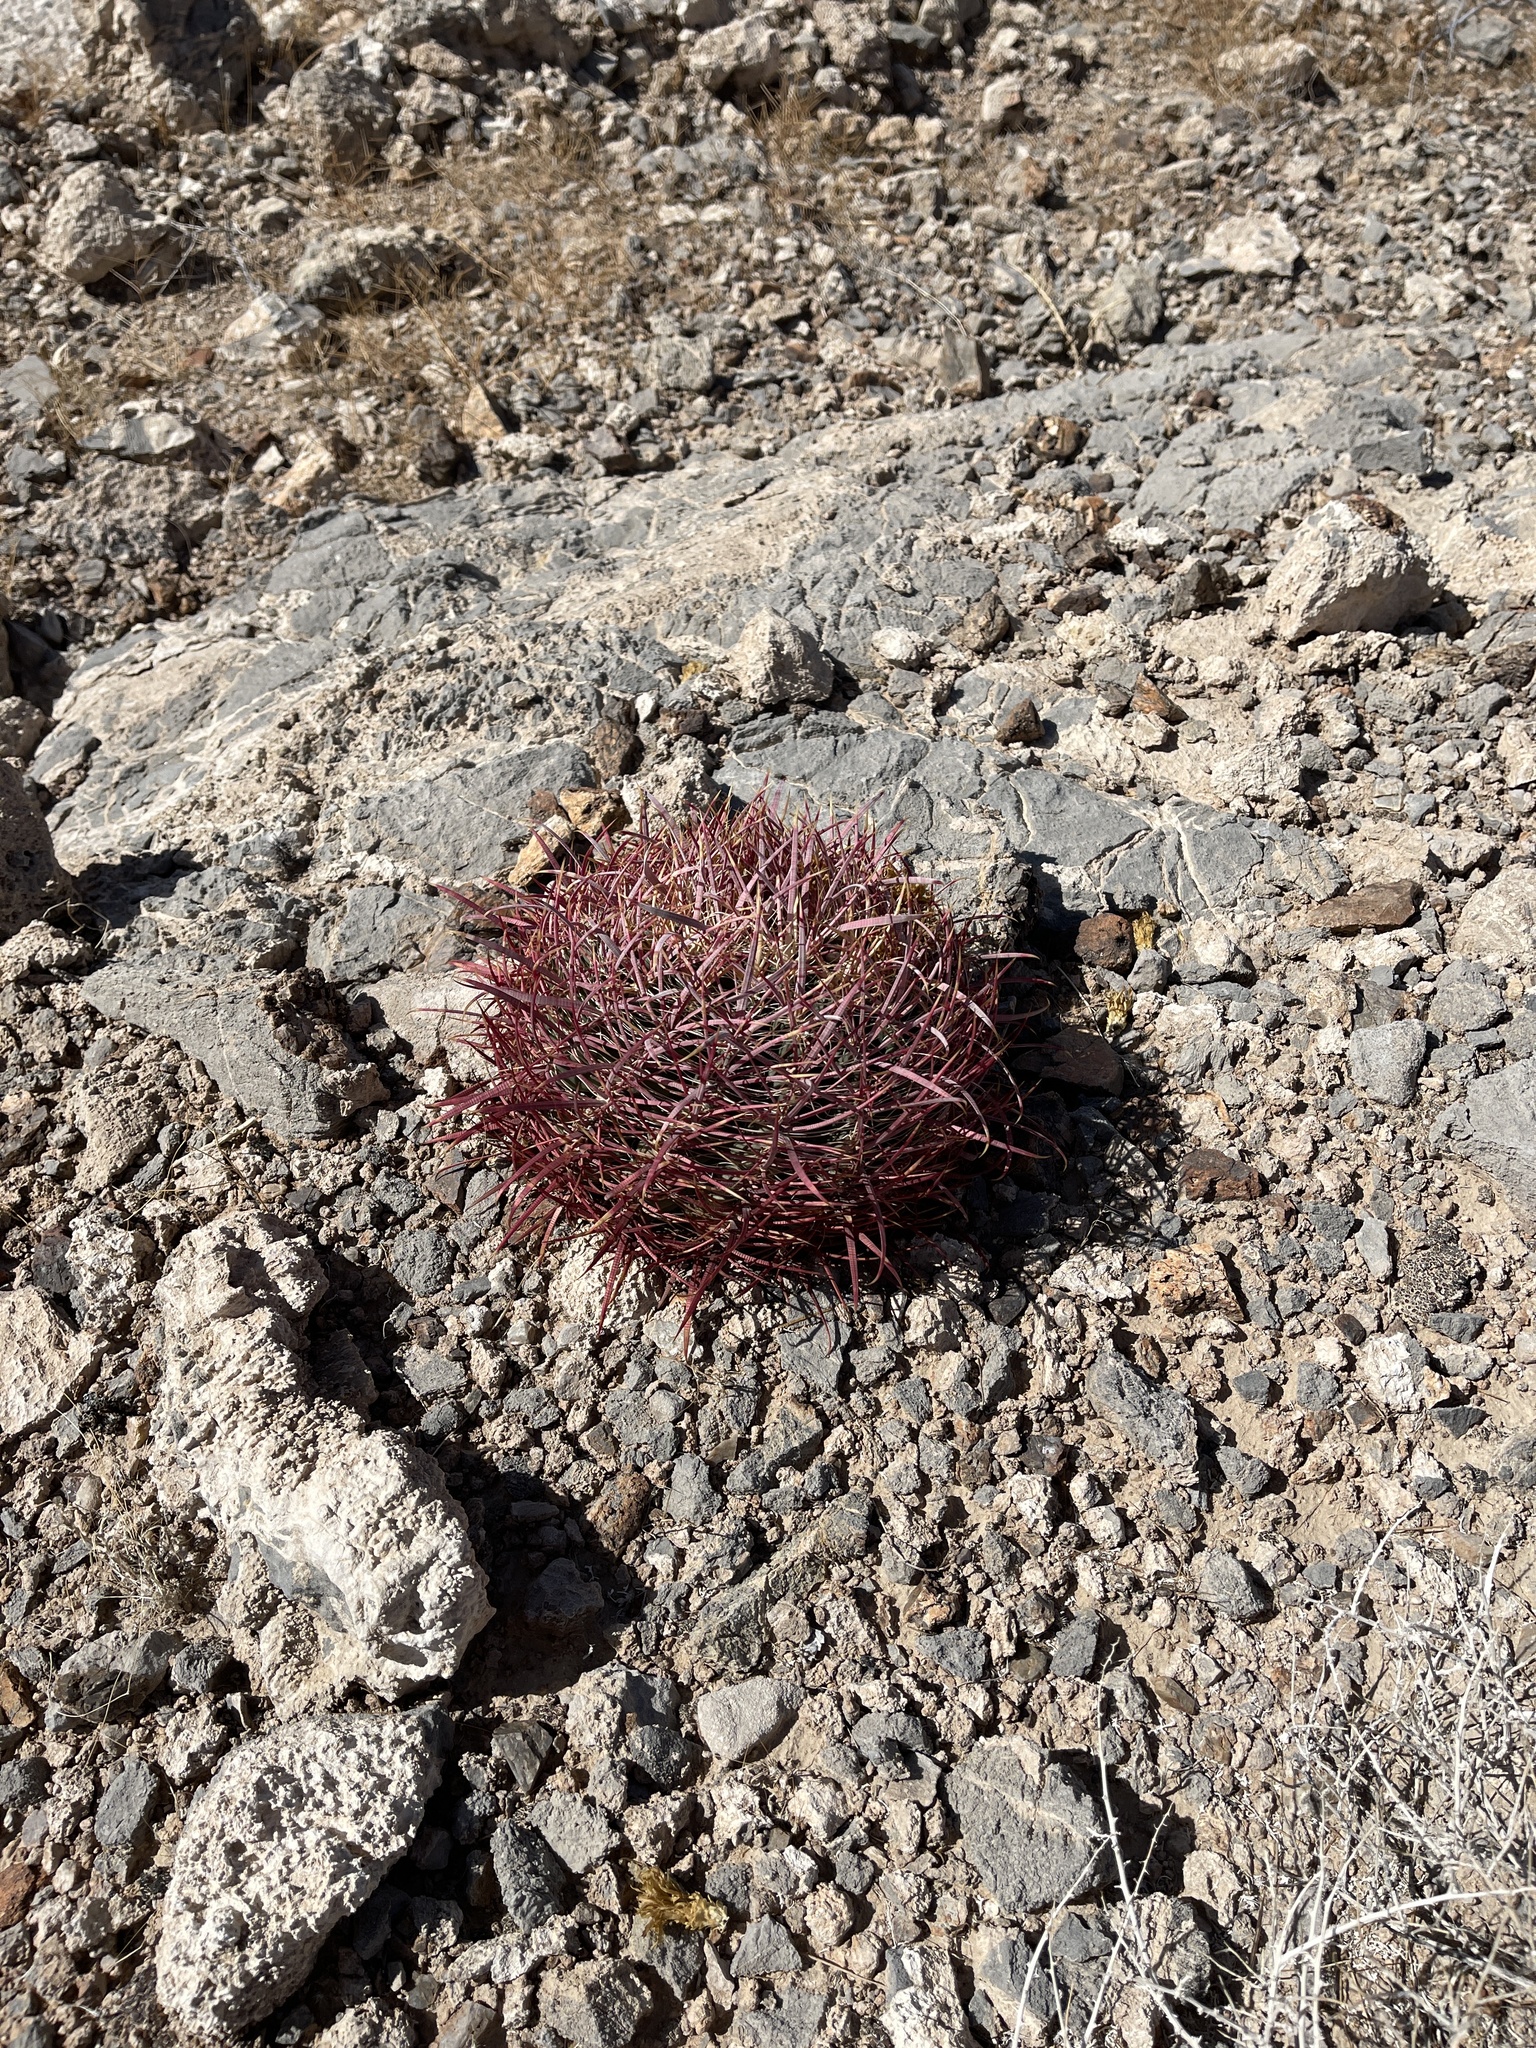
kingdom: Plantae
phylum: Tracheophyta
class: Magnoliopsida
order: Caryophyllales
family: Cactaceae
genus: Ferocactus
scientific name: Ferocactus cylindraceus
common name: California barrel cactus
